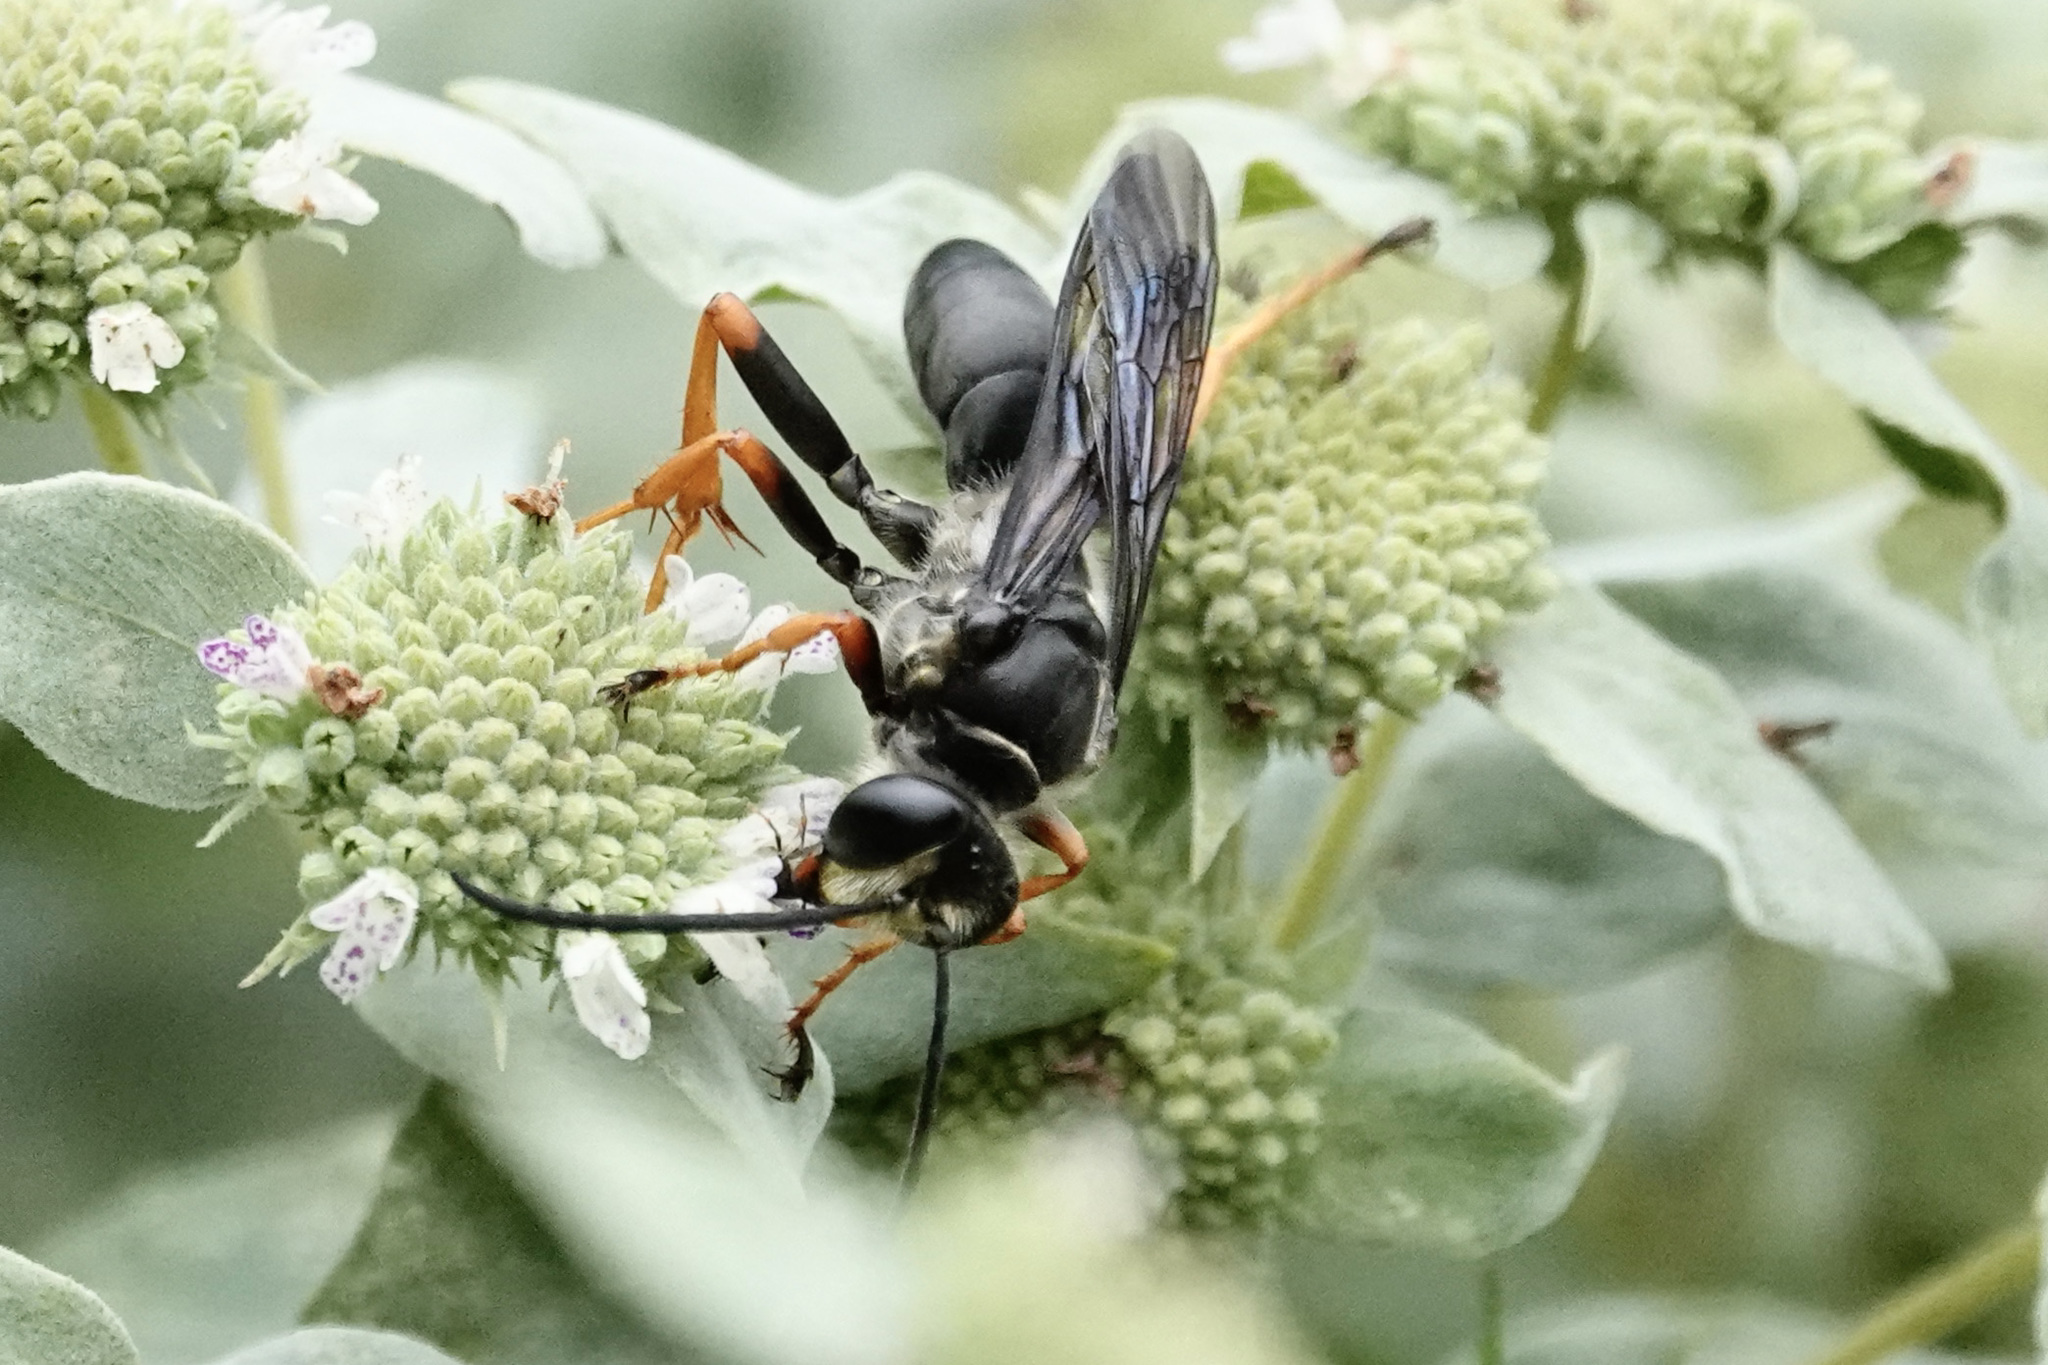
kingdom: Animalia
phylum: Arthropoda
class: Insecta
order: Hymenoptera
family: Sphecidae
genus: Sphex
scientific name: Sphex nudus
